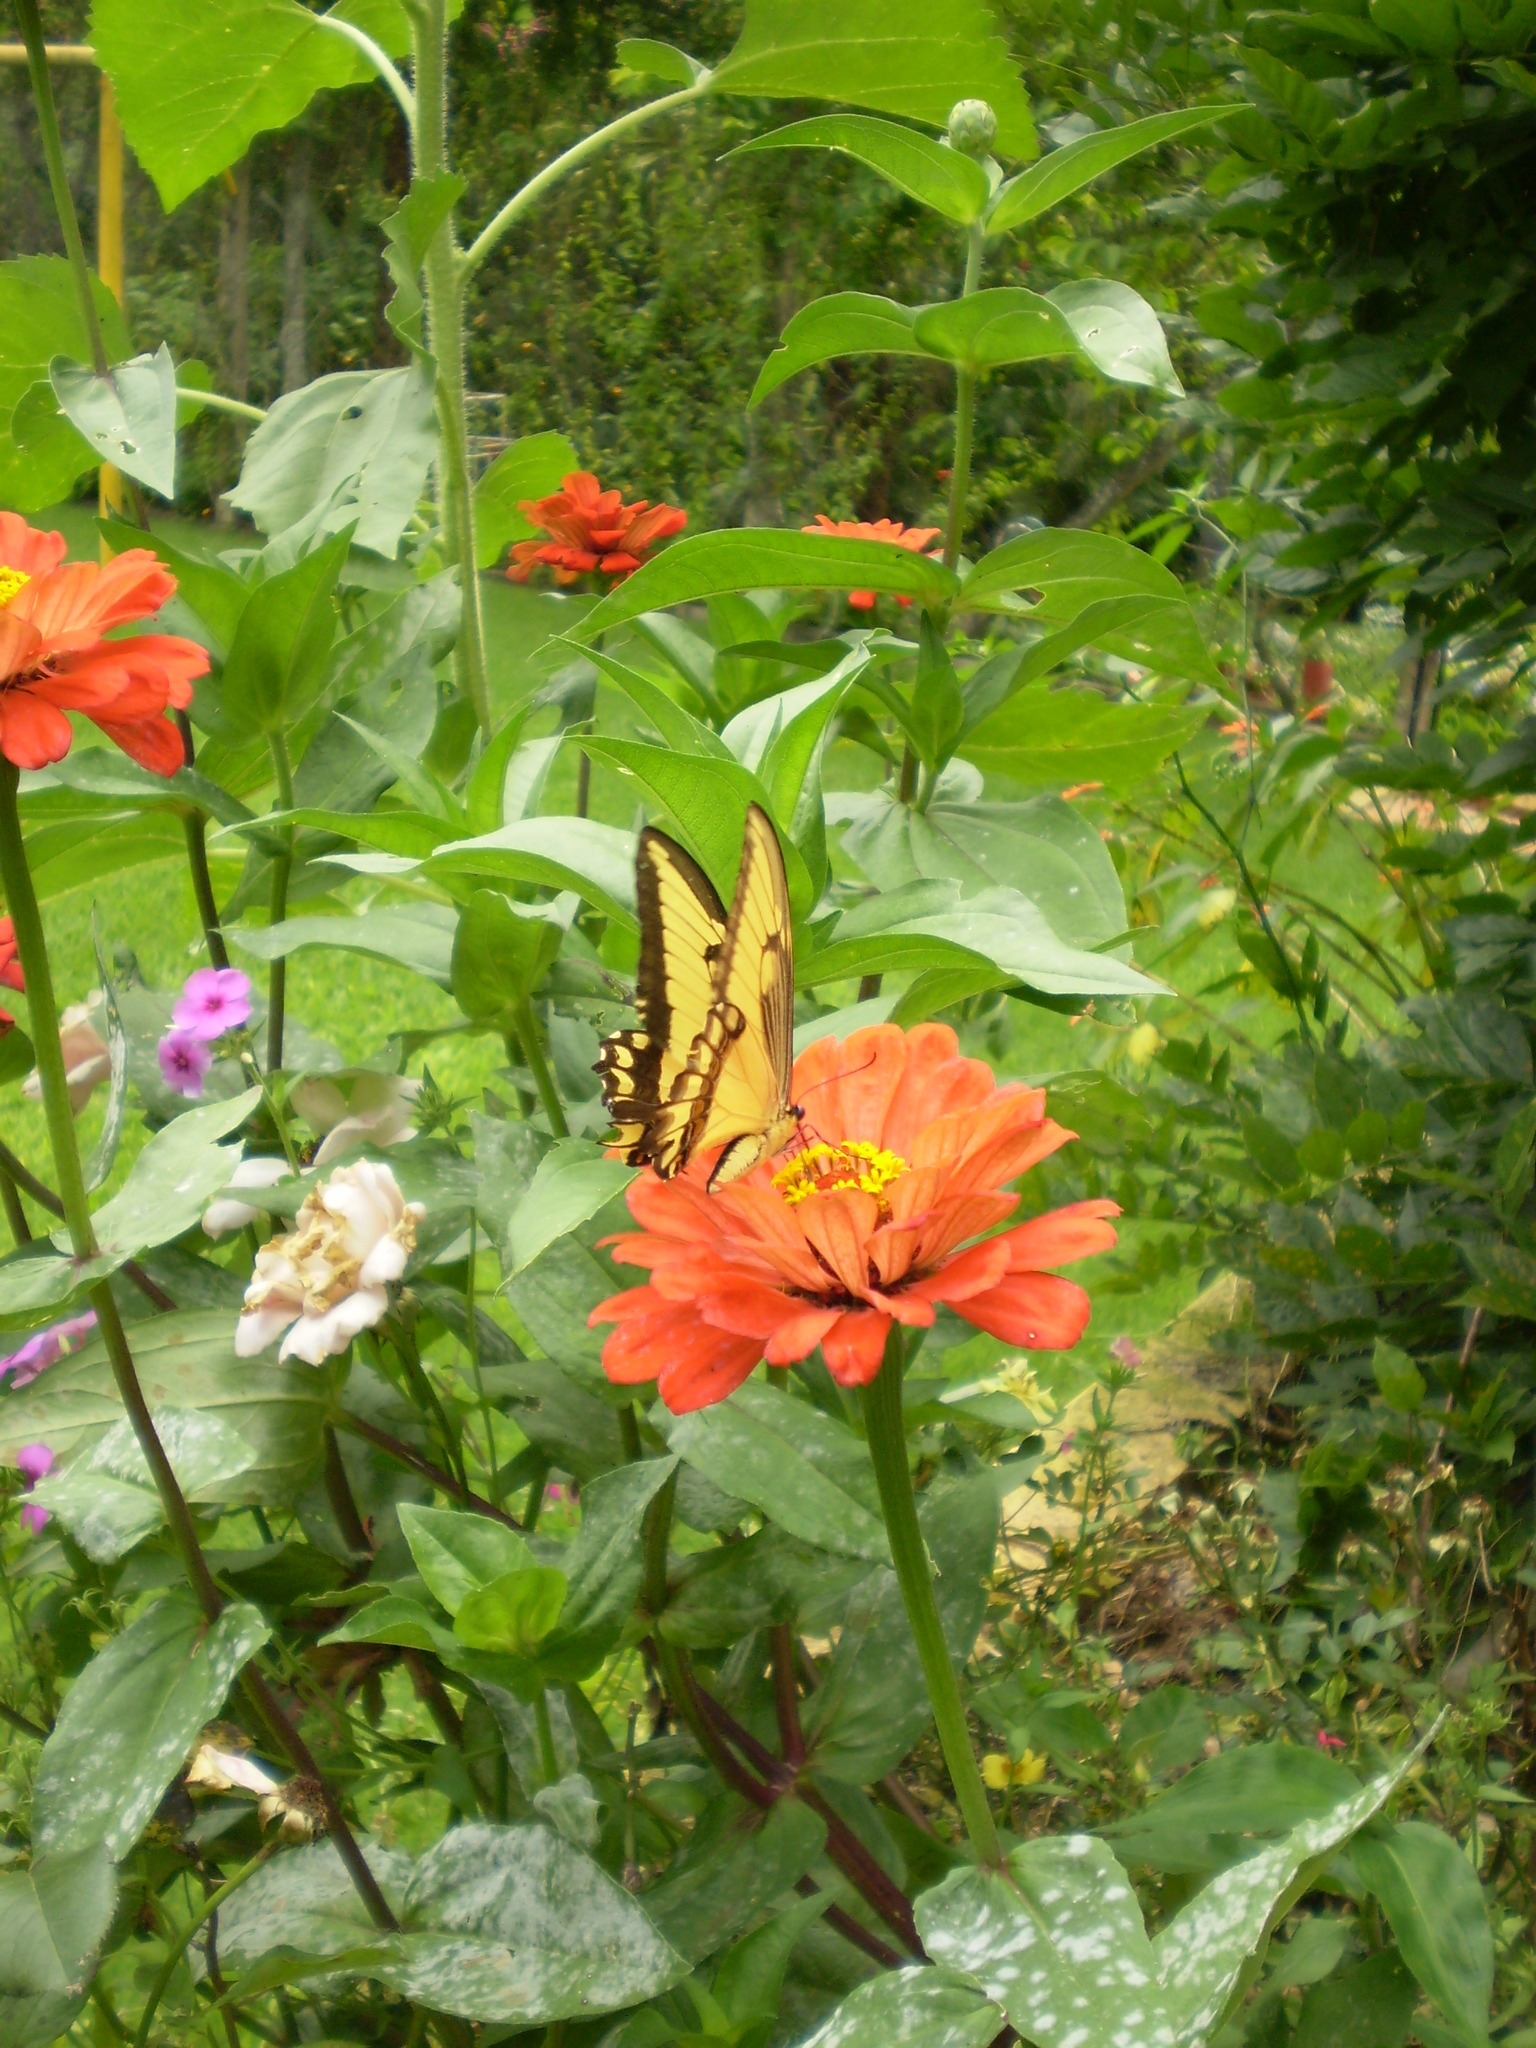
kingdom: Animalia
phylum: Arthropoda
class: Insecta
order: Lepidoptera
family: Papilionidae
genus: Papilio
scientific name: Papilio astyalus
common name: Astyalus swallowtail
